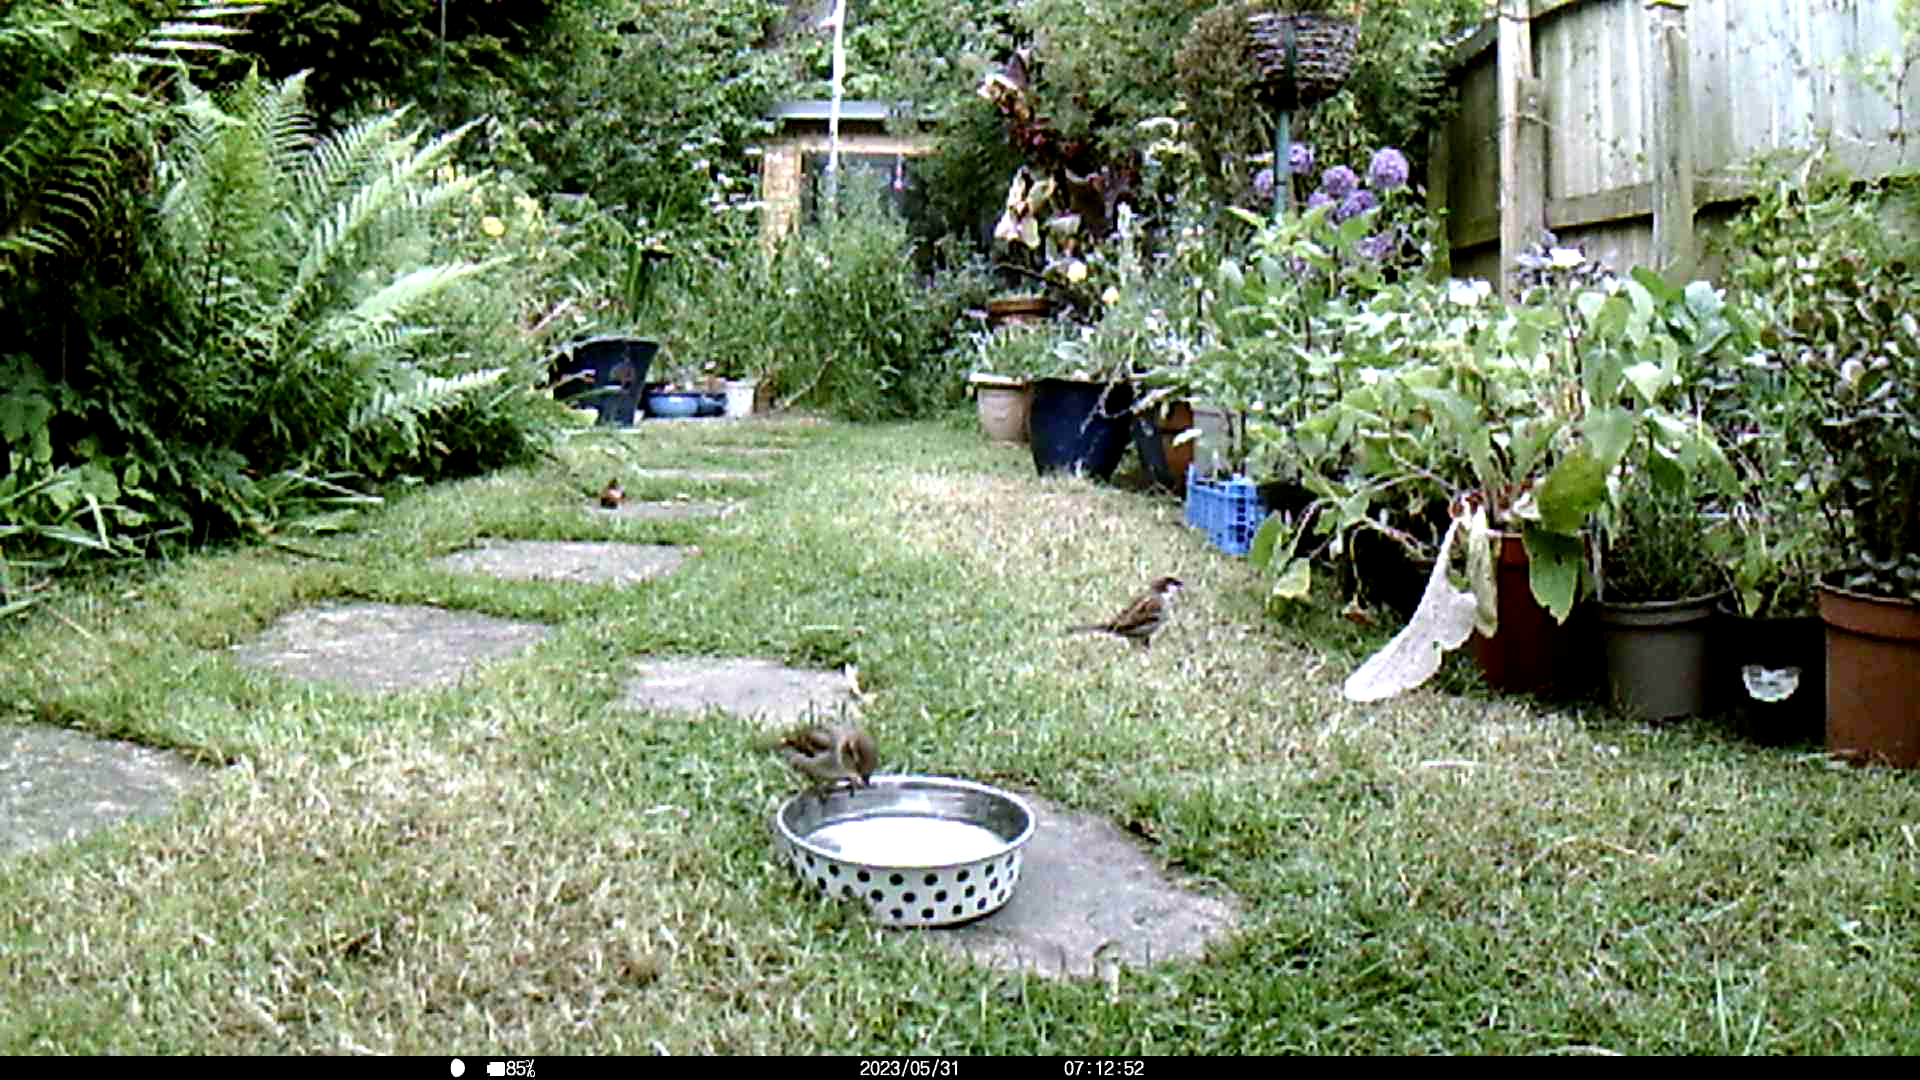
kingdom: Animalia
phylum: Chordata
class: Aves
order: Passeriformes
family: Passeridae
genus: Passer
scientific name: Passer domesticus
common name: House sparrow
